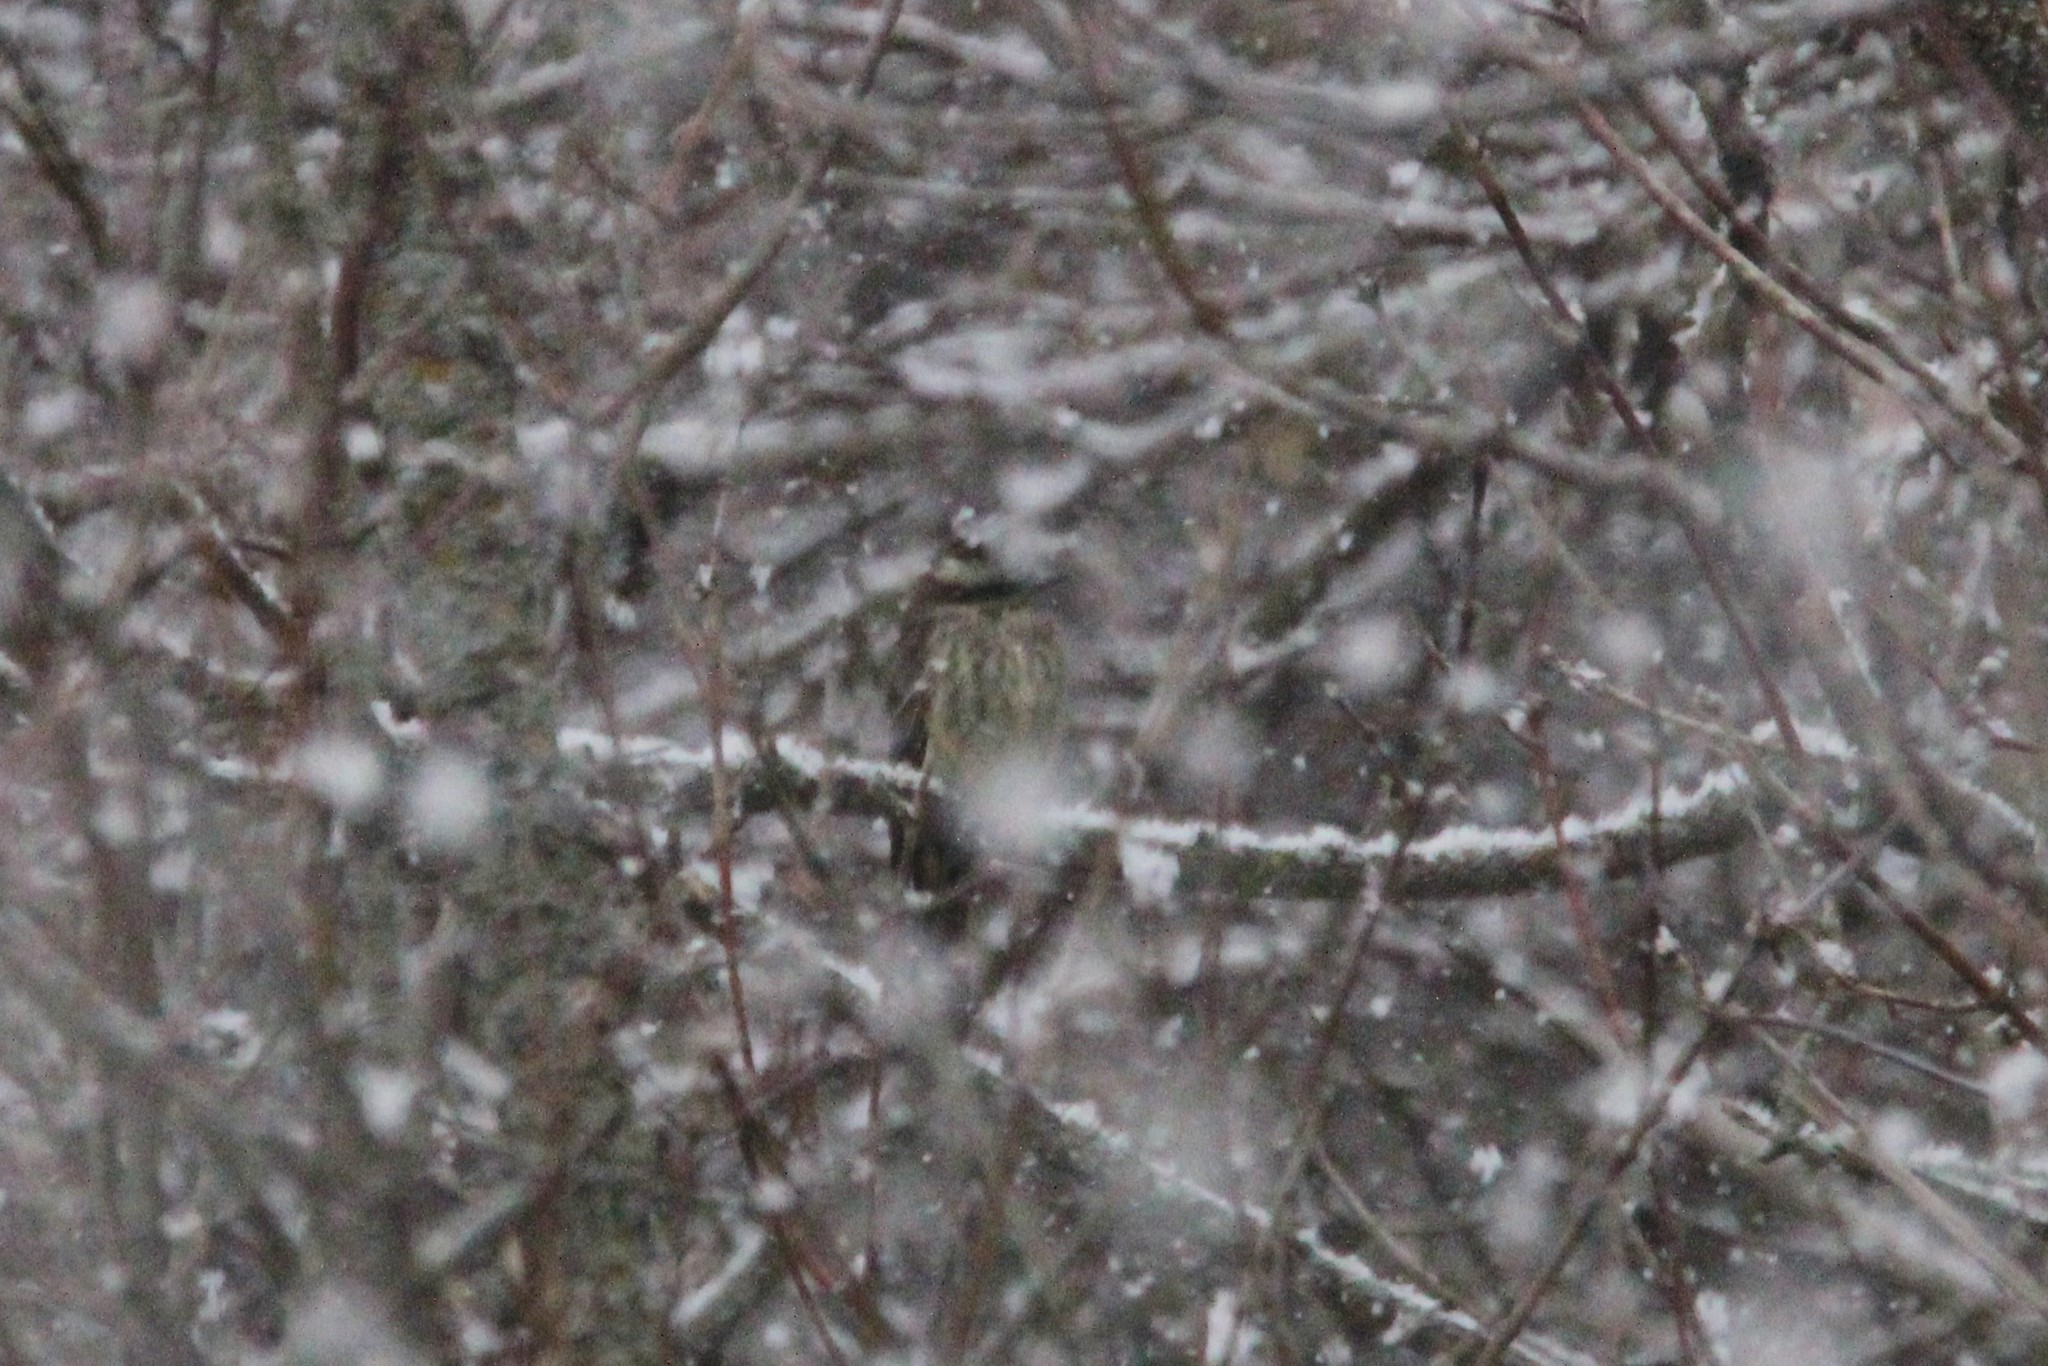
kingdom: Animalia
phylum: Chordata
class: Aves
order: Passeriformes
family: Tyrannidae
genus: Empidonomus
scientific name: Empidonomus varius
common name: Variegated flycatcher
